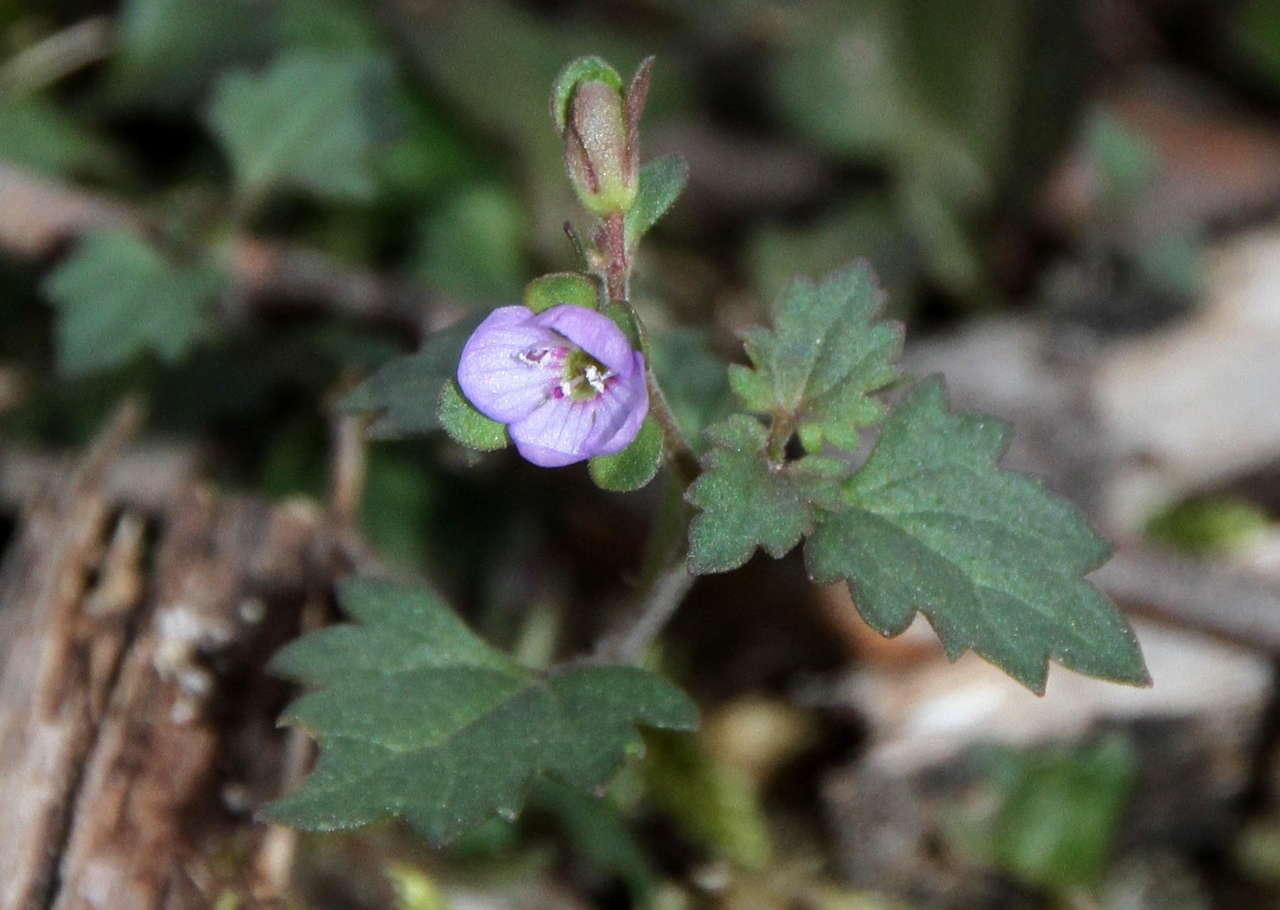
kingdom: Plantae
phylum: Tracheophyta
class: Magnoliopsida
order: Lamiales
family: Plantaginaceae
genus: Veronica
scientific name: Veronica plebeia
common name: Speedwell
